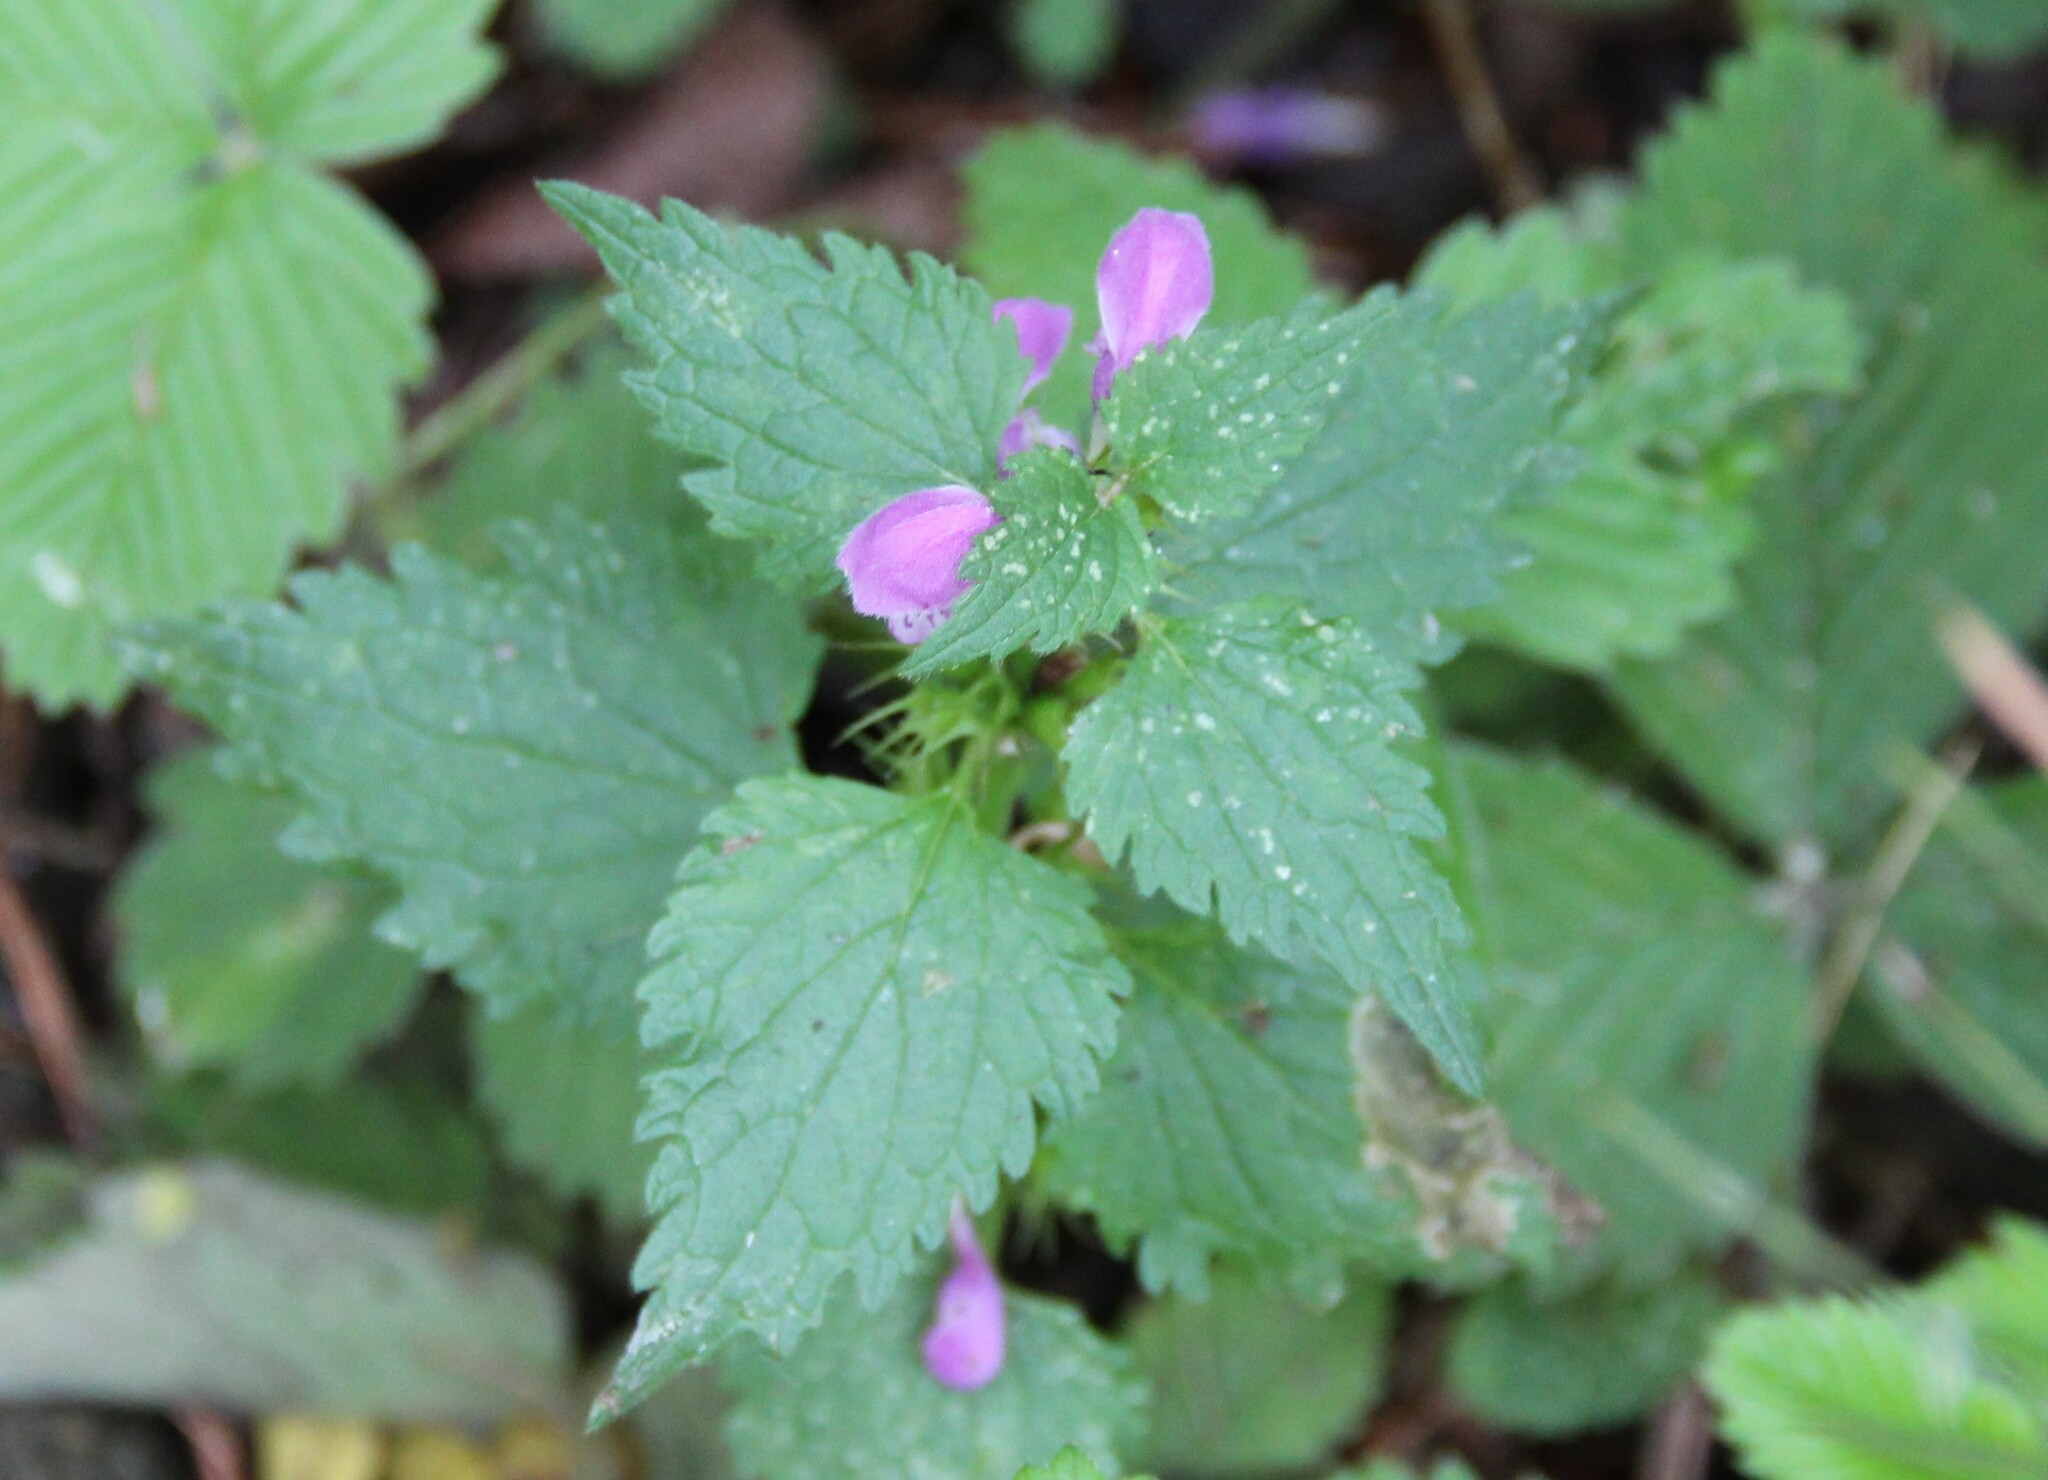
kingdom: Plantae
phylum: Tracheophyta
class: Magnoliopsida
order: Lamiales
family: Lamiaceae
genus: Lamium
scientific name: Lamium maculatum
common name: Spotted dead-nettle
